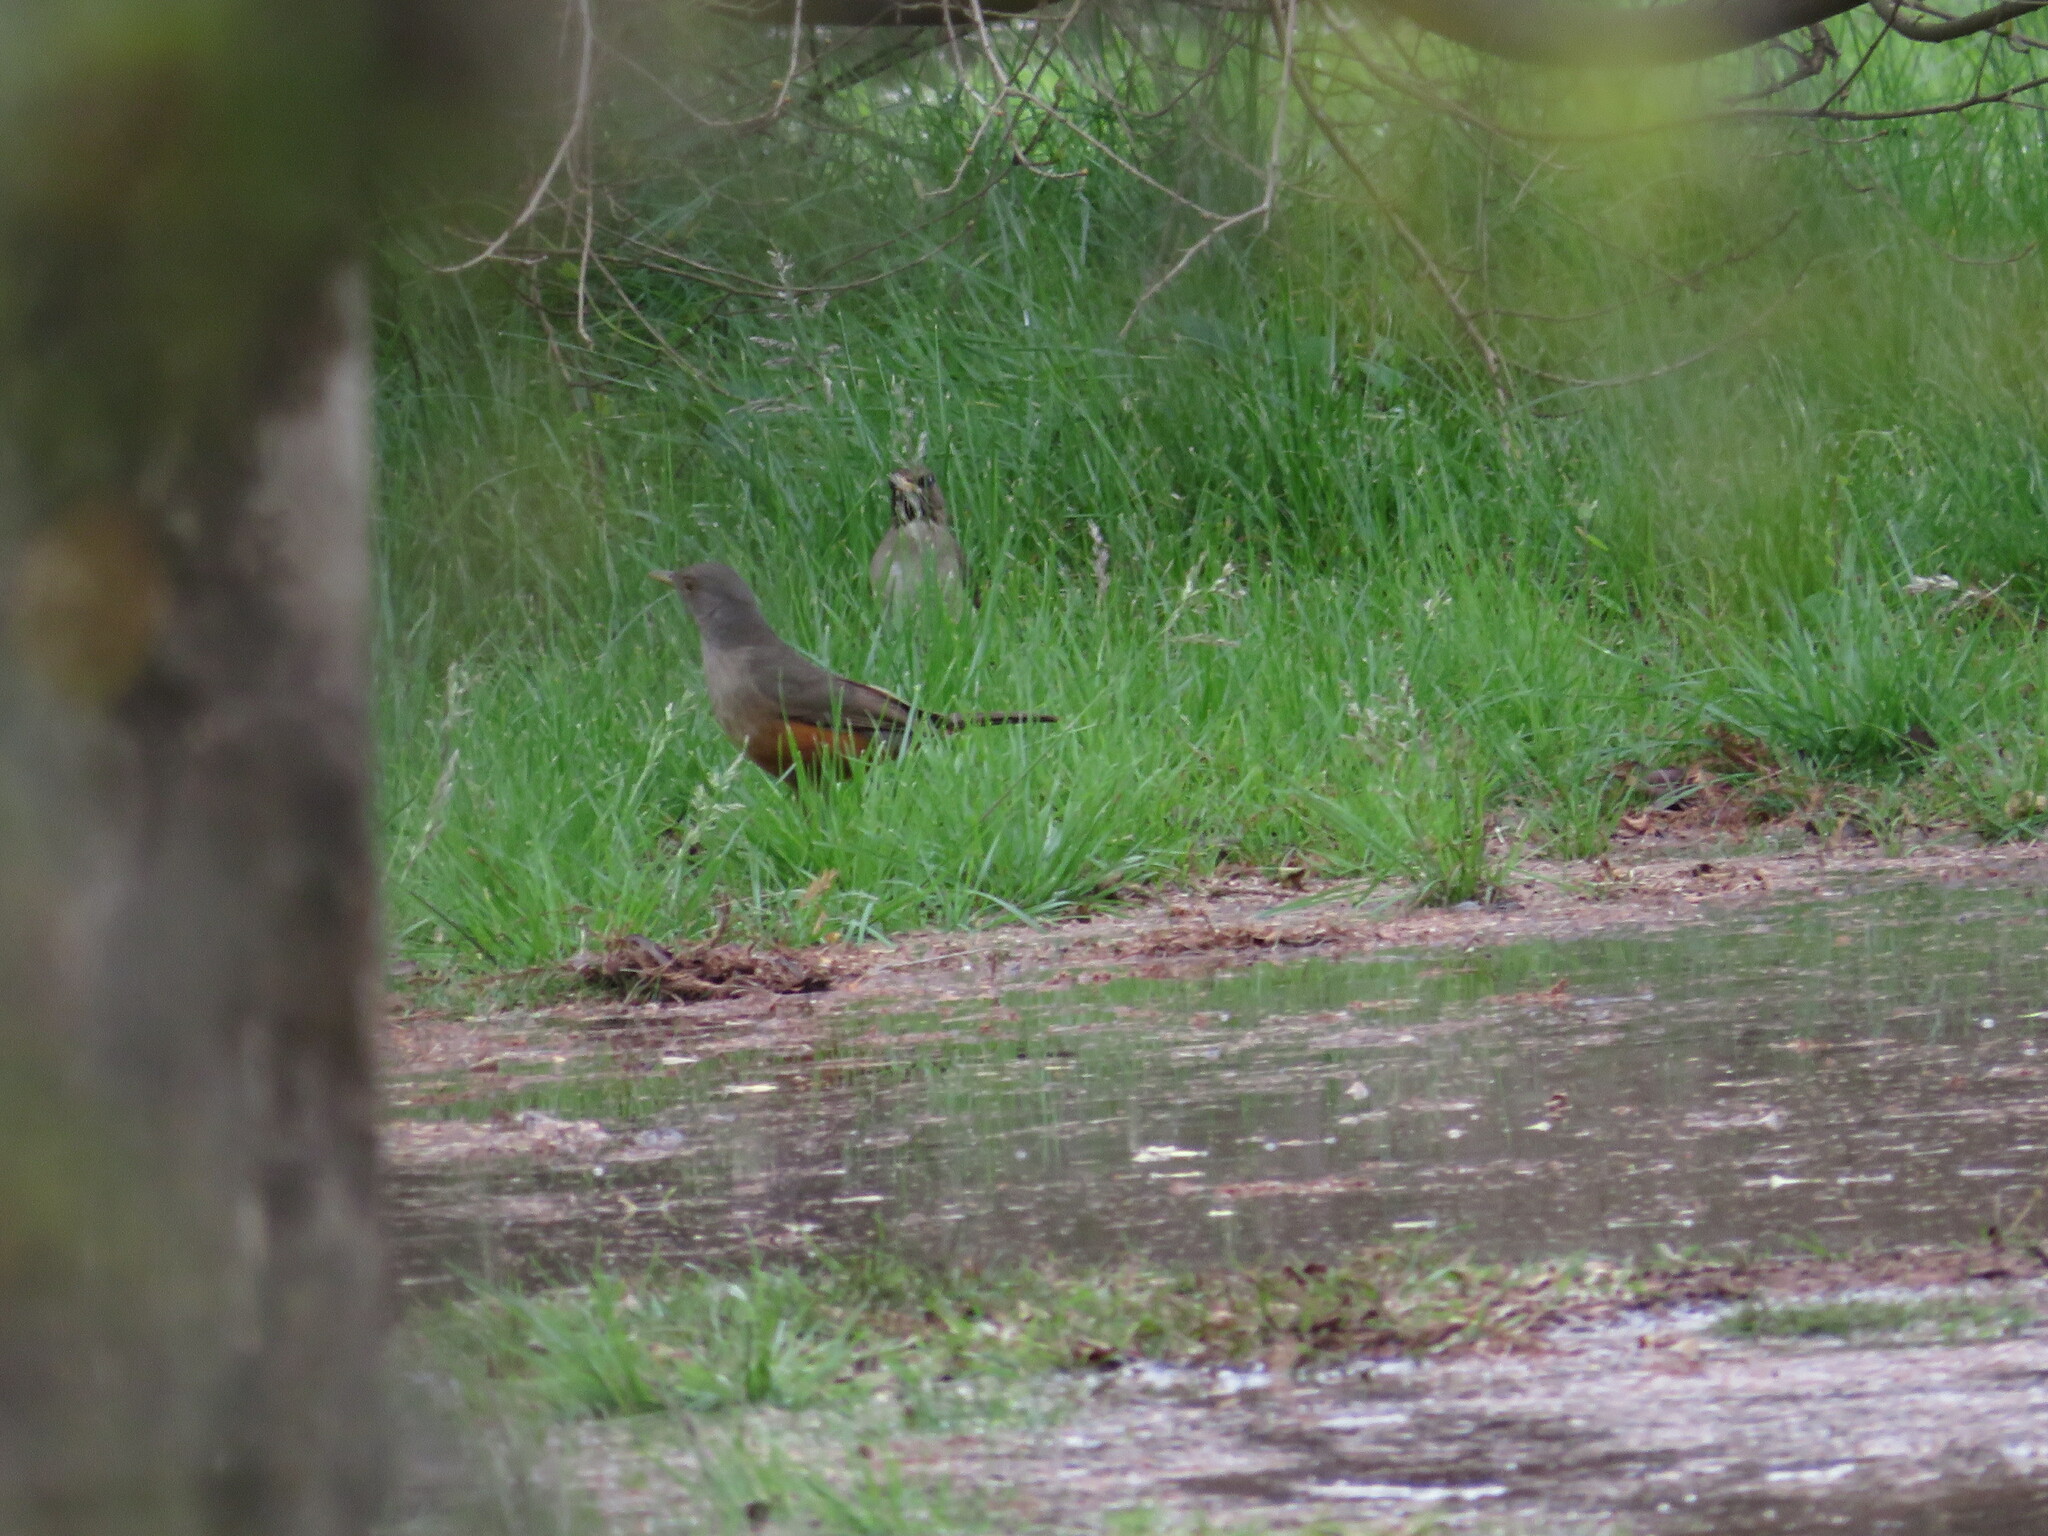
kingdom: Animalia
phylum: Chordata
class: Aves
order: Passeriformes
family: Turdidae
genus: Turdus
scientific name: Turdus rufiventris
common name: Rufous-bellied thrush
